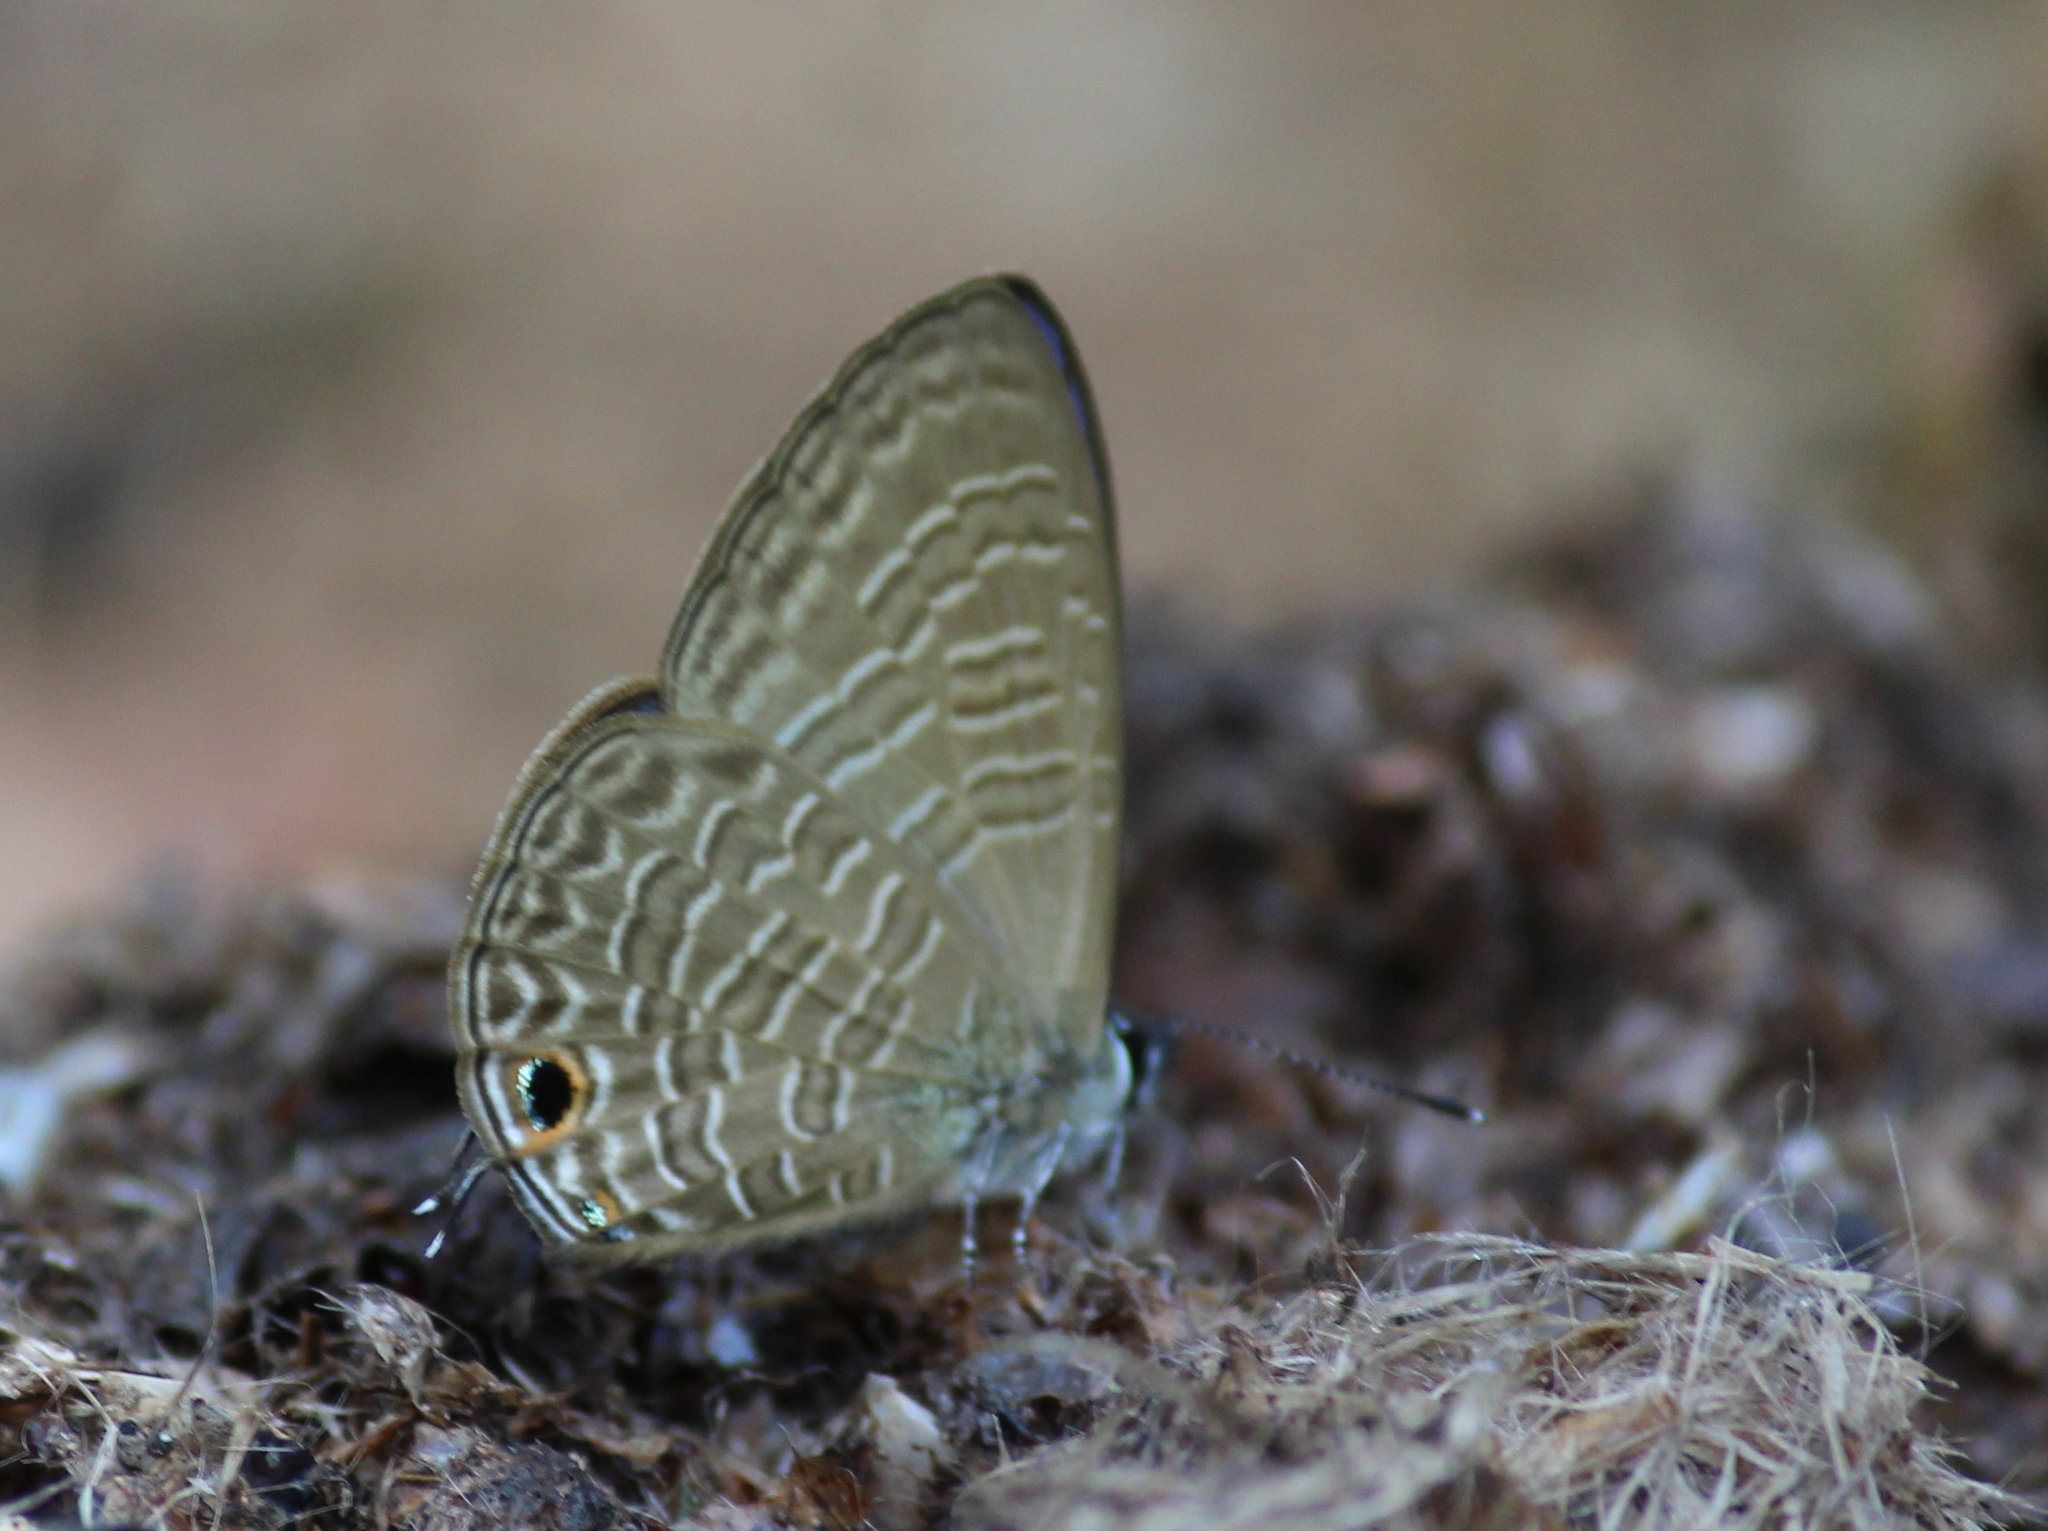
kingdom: Animalia
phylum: Arthropoda
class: Insecta
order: Lepidoptera
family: Lycaenidae
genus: Nacaduba
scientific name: Nacaduba kurava
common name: Transparent 6-line blue
